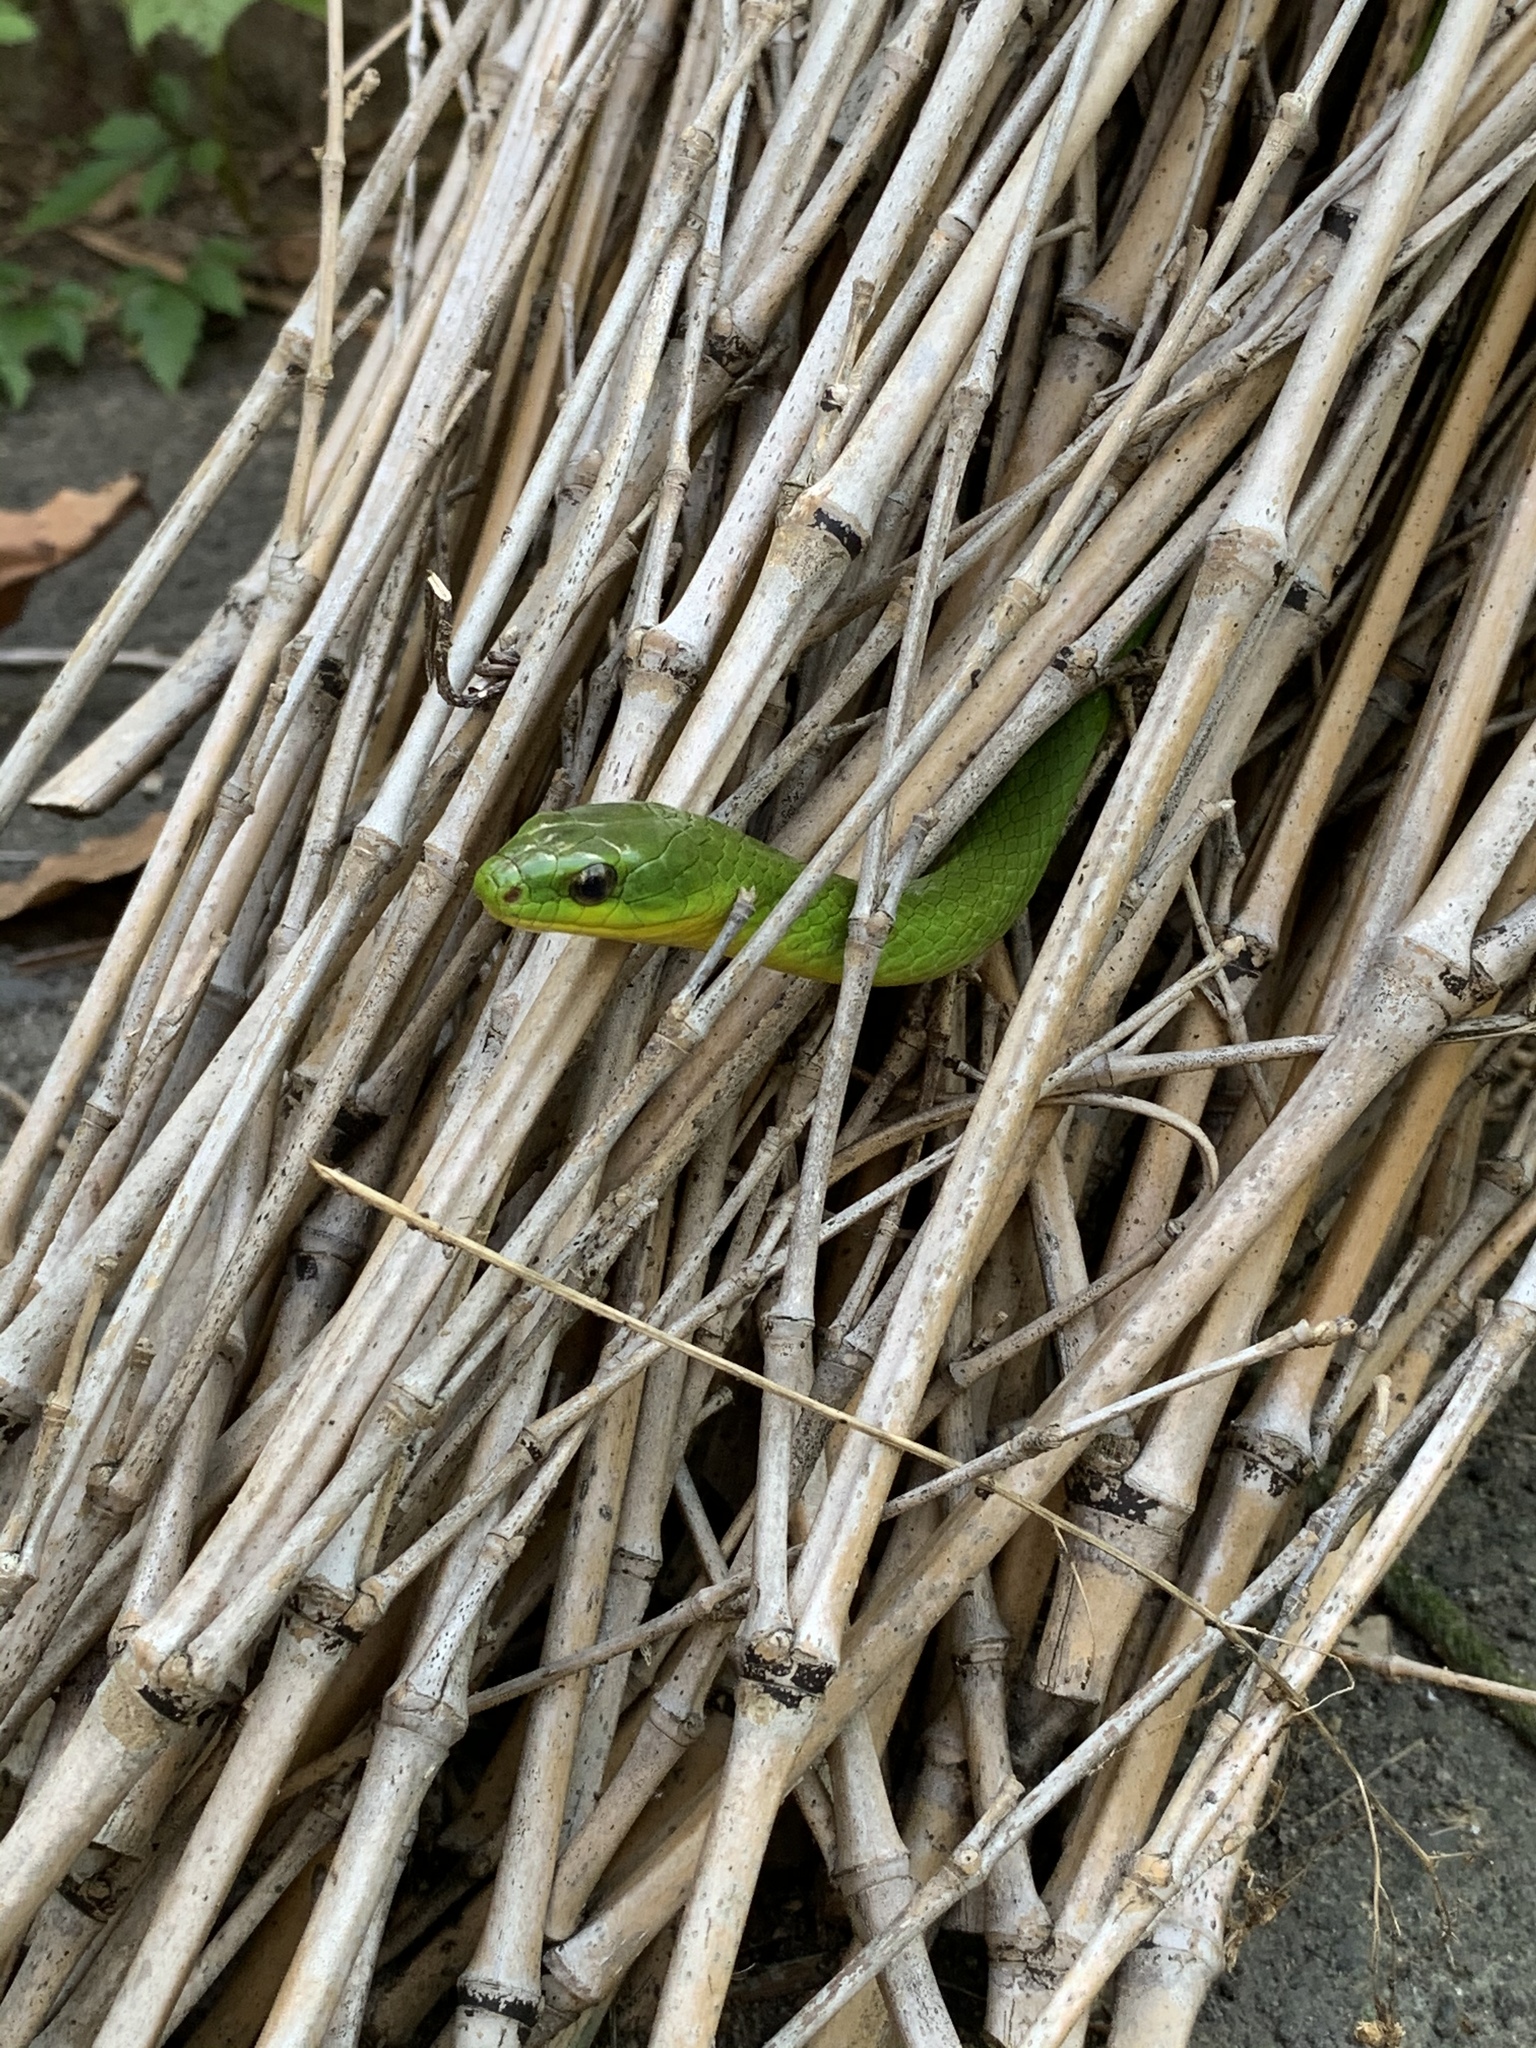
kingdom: Animalia
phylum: Chordata
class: Squamata
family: Colubridae
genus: Ptyas
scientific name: Ptyas major
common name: Chinese green snake
